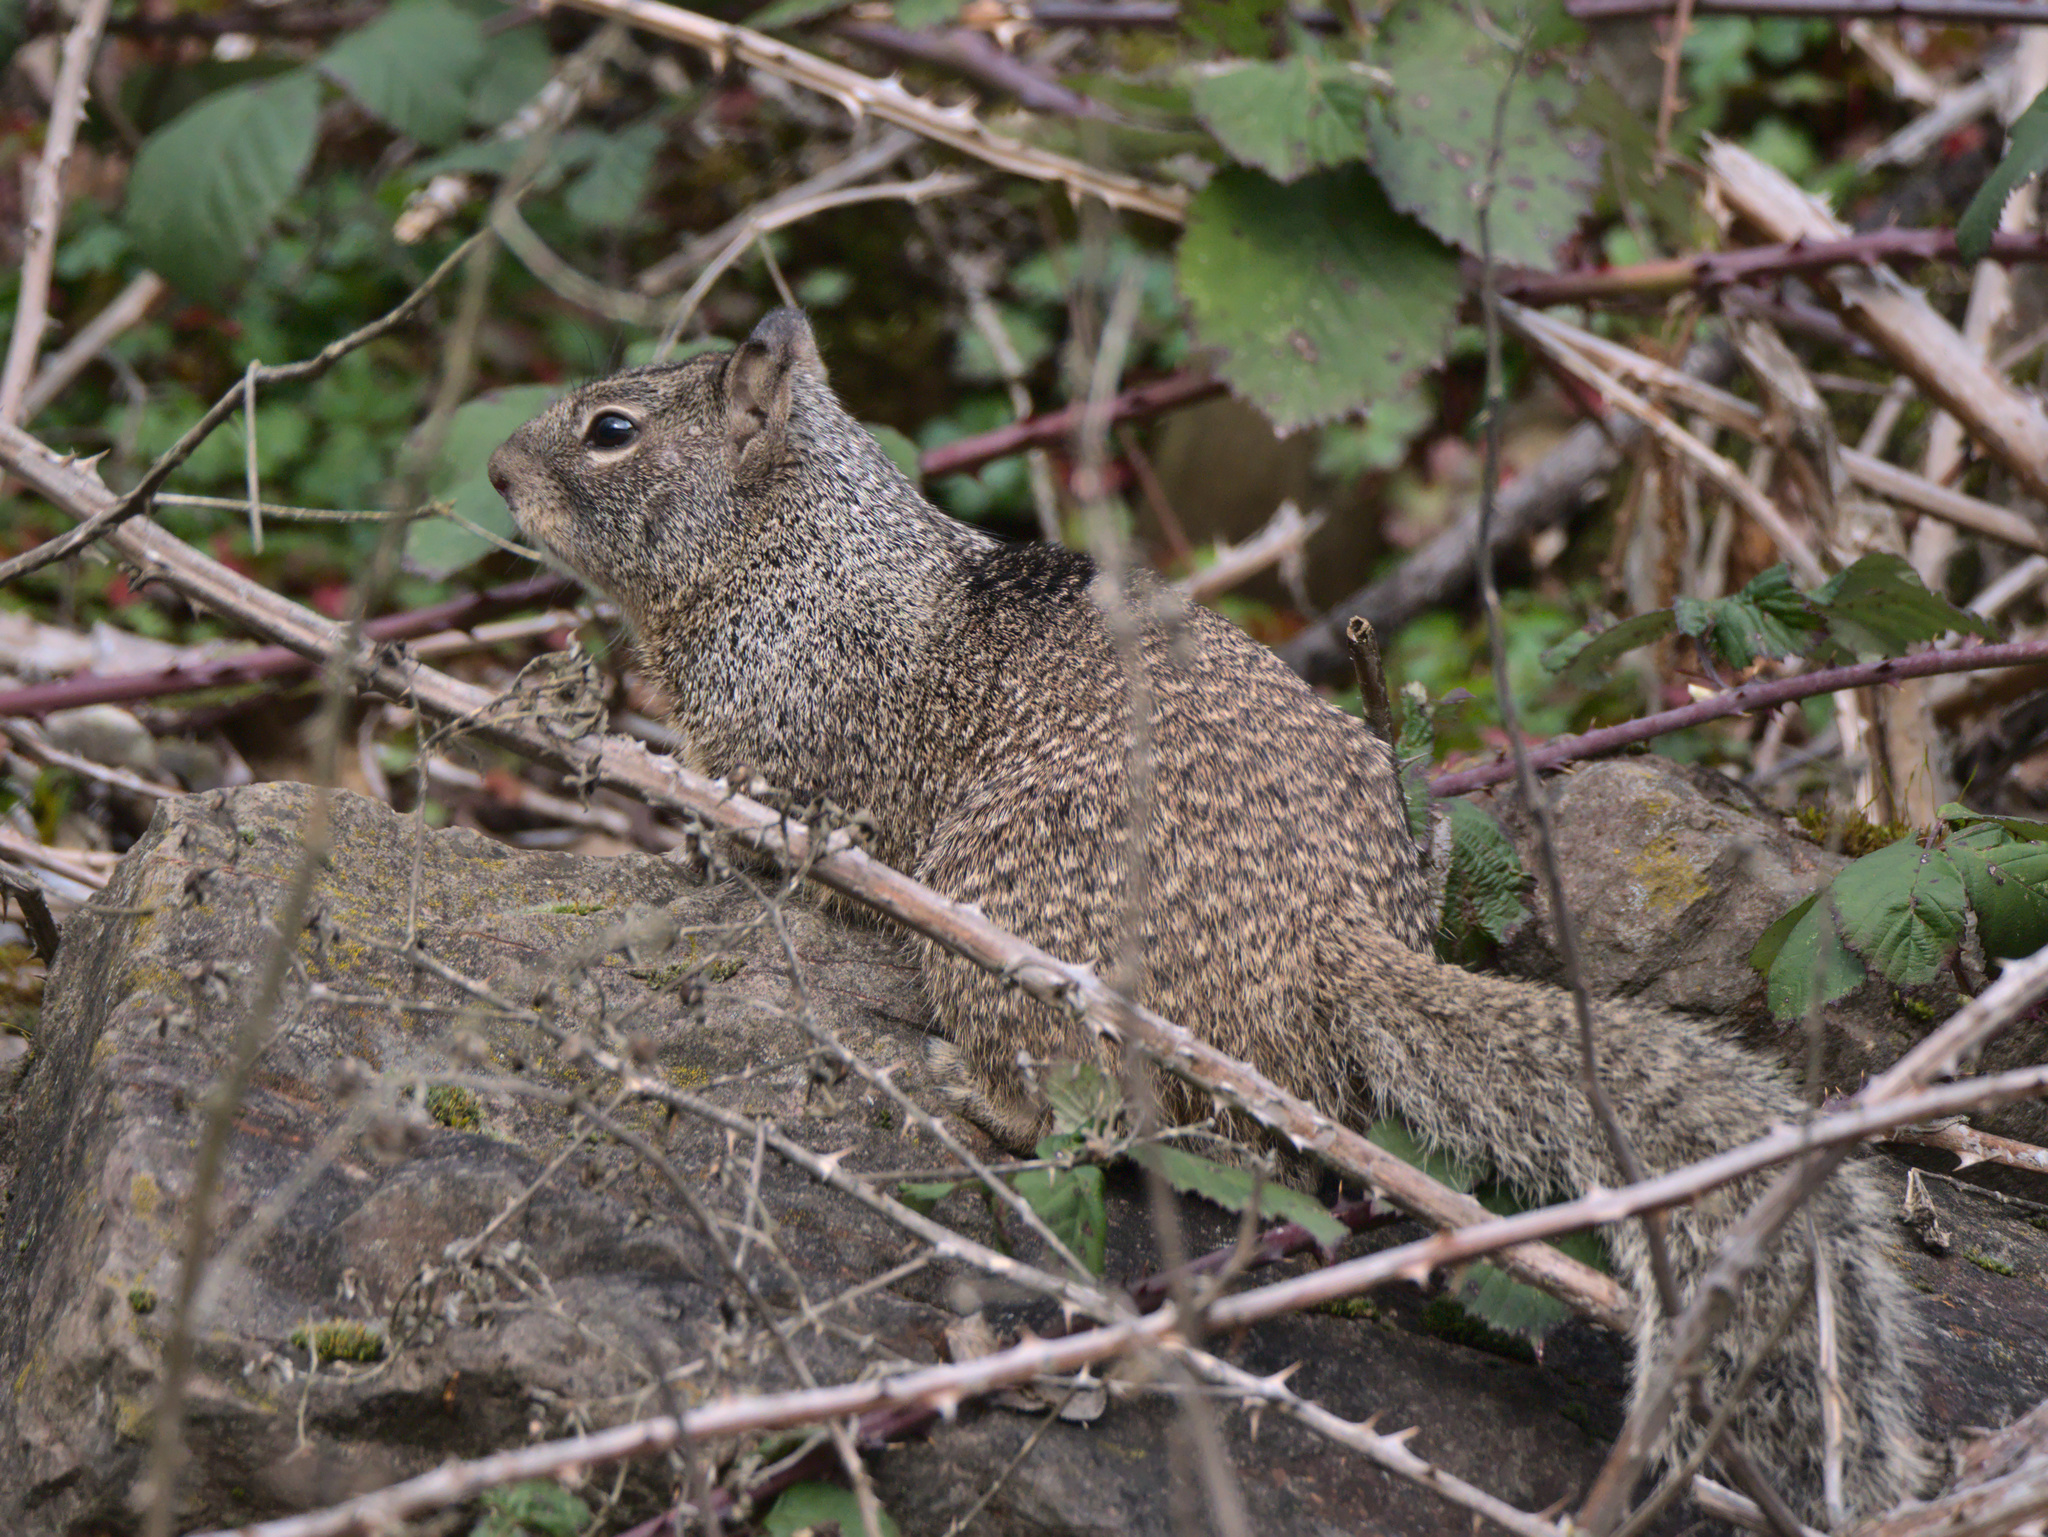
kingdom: Animalia
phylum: Chordata
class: Mammalia
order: Rodentia
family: Sciuridae
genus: Otospermophilus
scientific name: Otospermophilus beecheyi
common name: California ground squirrel
